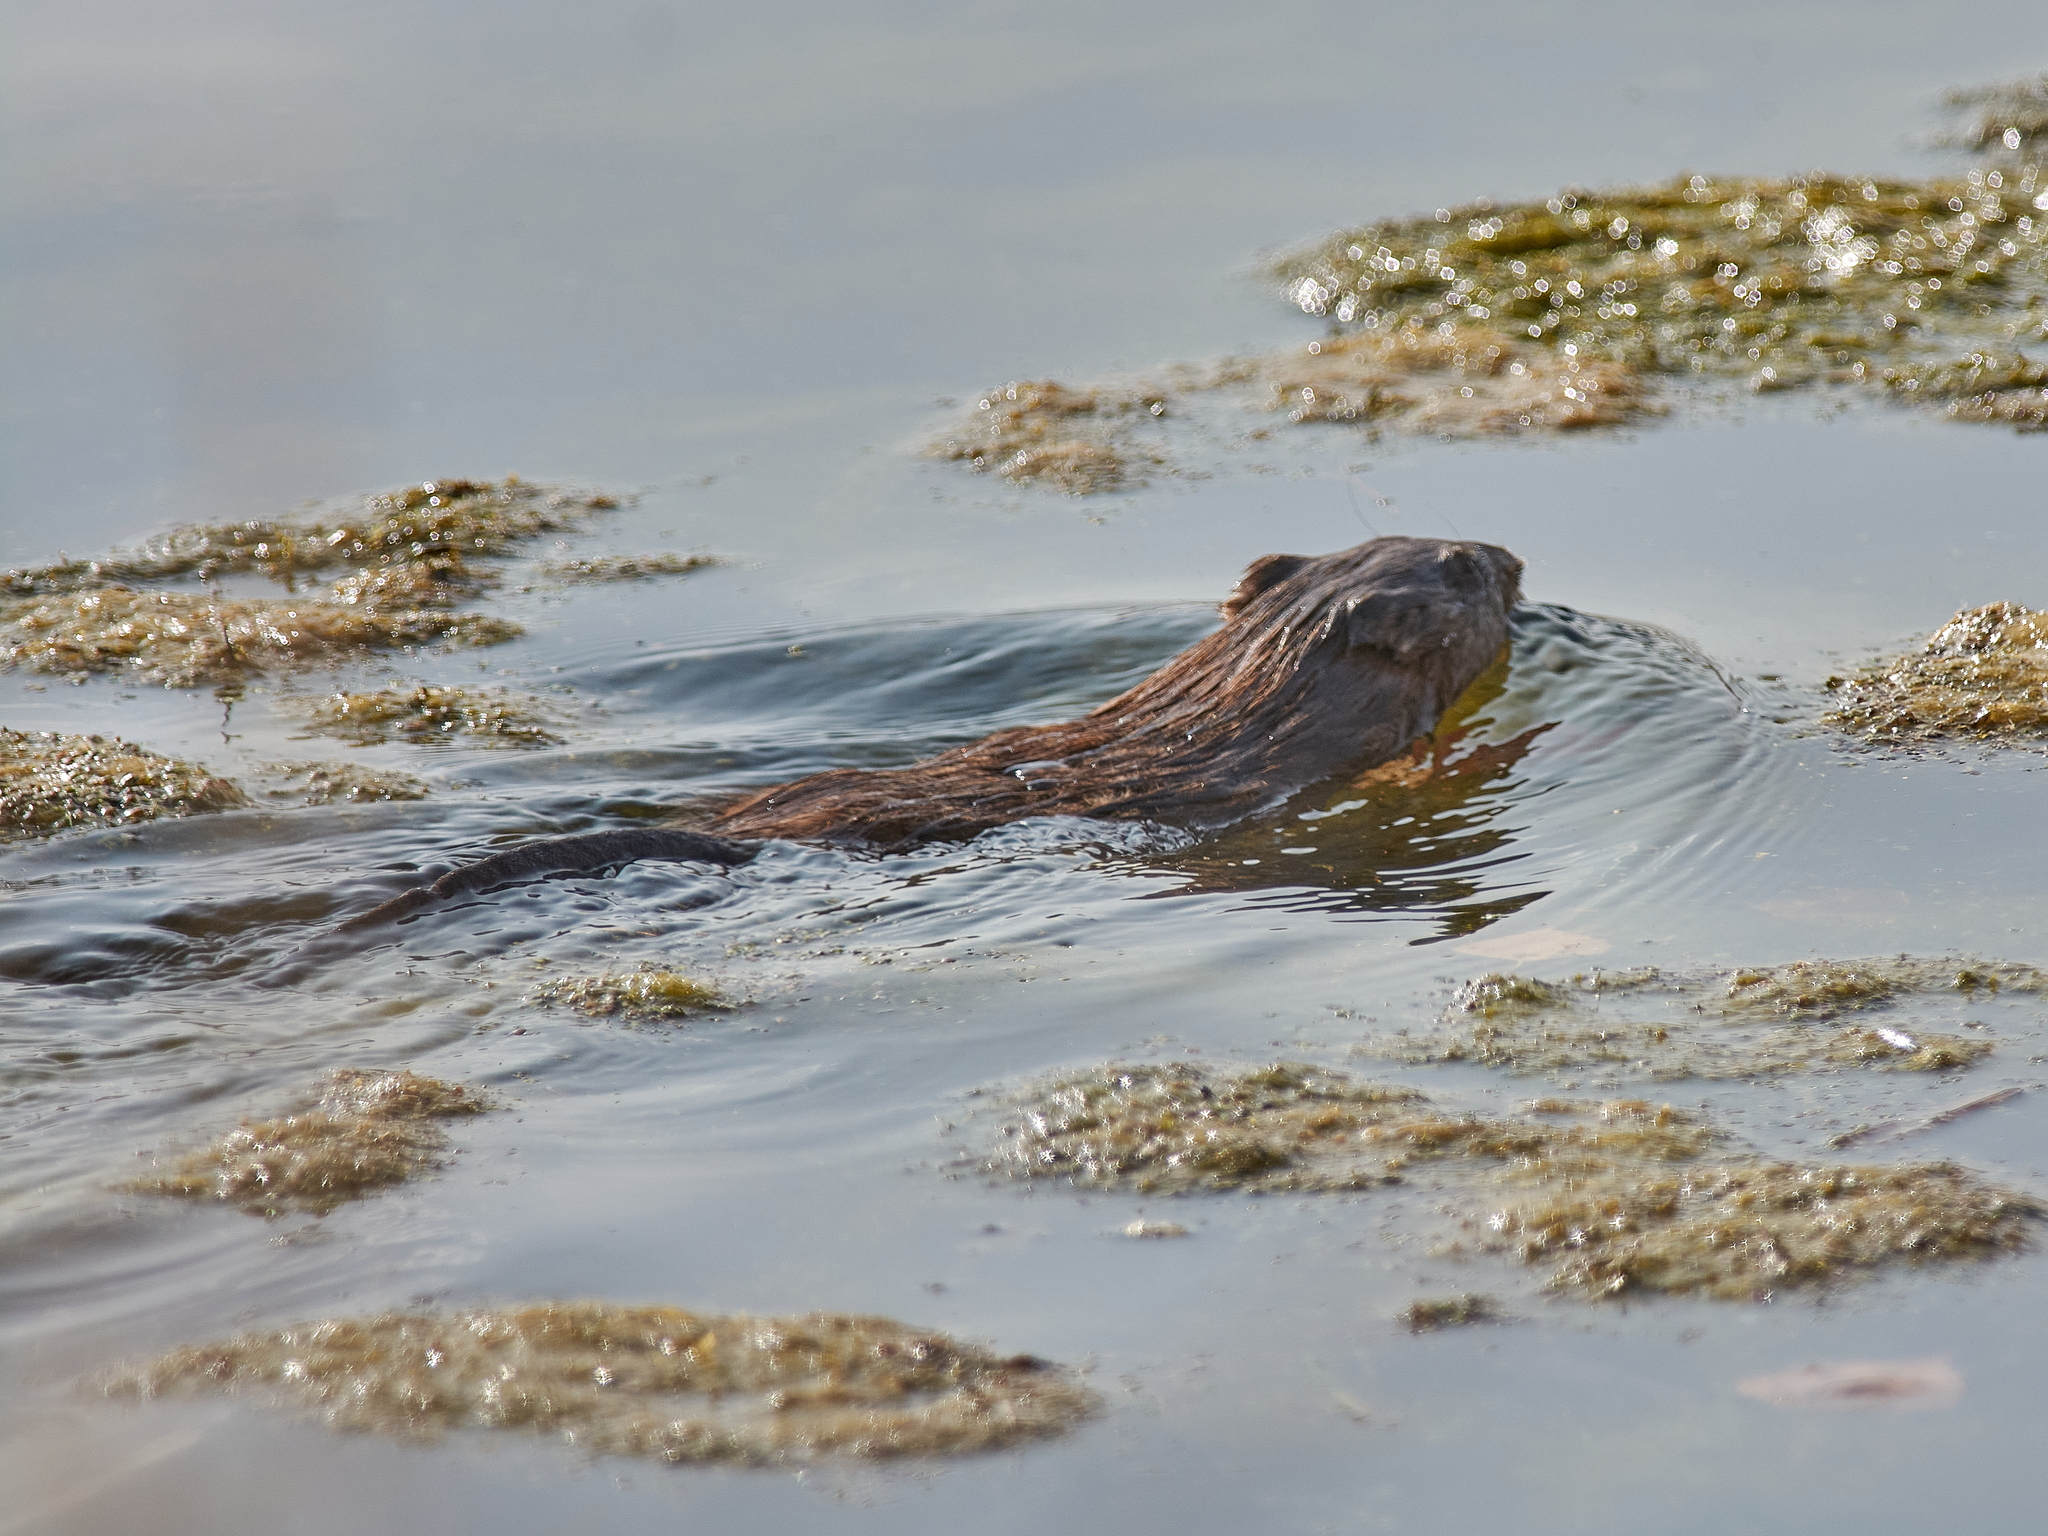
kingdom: Animalia
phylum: Chordata
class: Mammalia
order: Rodentia
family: Cricetidae
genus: Ondatra
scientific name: Ondatra zibethicus
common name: Muskrat
